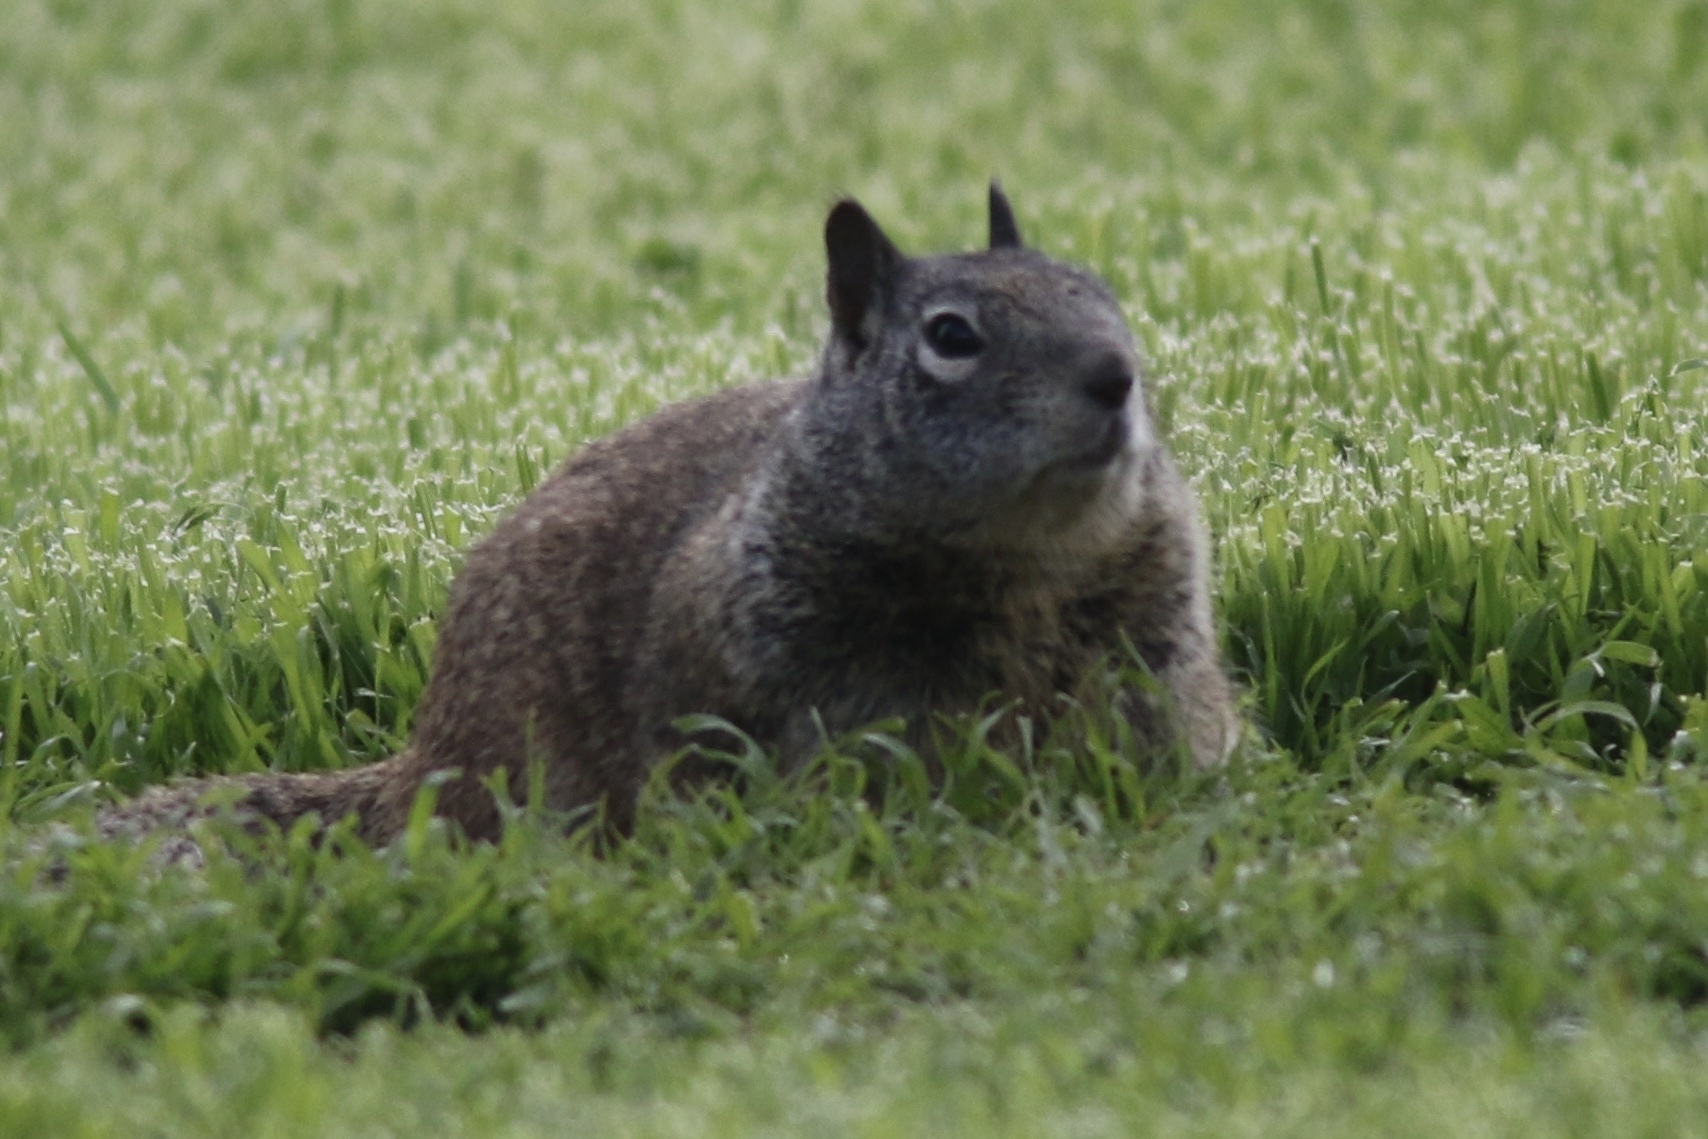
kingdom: Animalia
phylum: Chordata
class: Mammalia
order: Rodentia
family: Sciuridae
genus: Otospermophilus
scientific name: Otospermophilus beecheyi
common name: California ground squirrel
